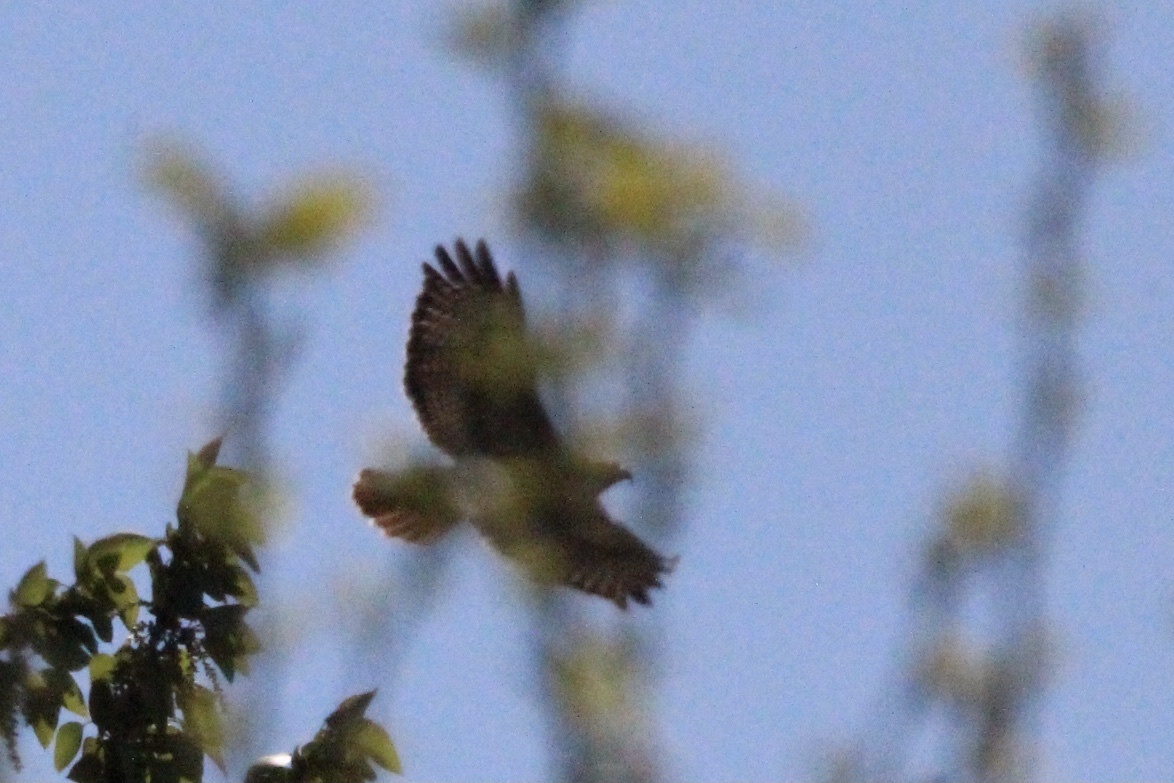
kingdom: Animalia
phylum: Chordata
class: Aves
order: Accipitriformes
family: Accipitridae
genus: Buteo
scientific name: Buteo jamaicensis
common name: Red-tailed hawk
